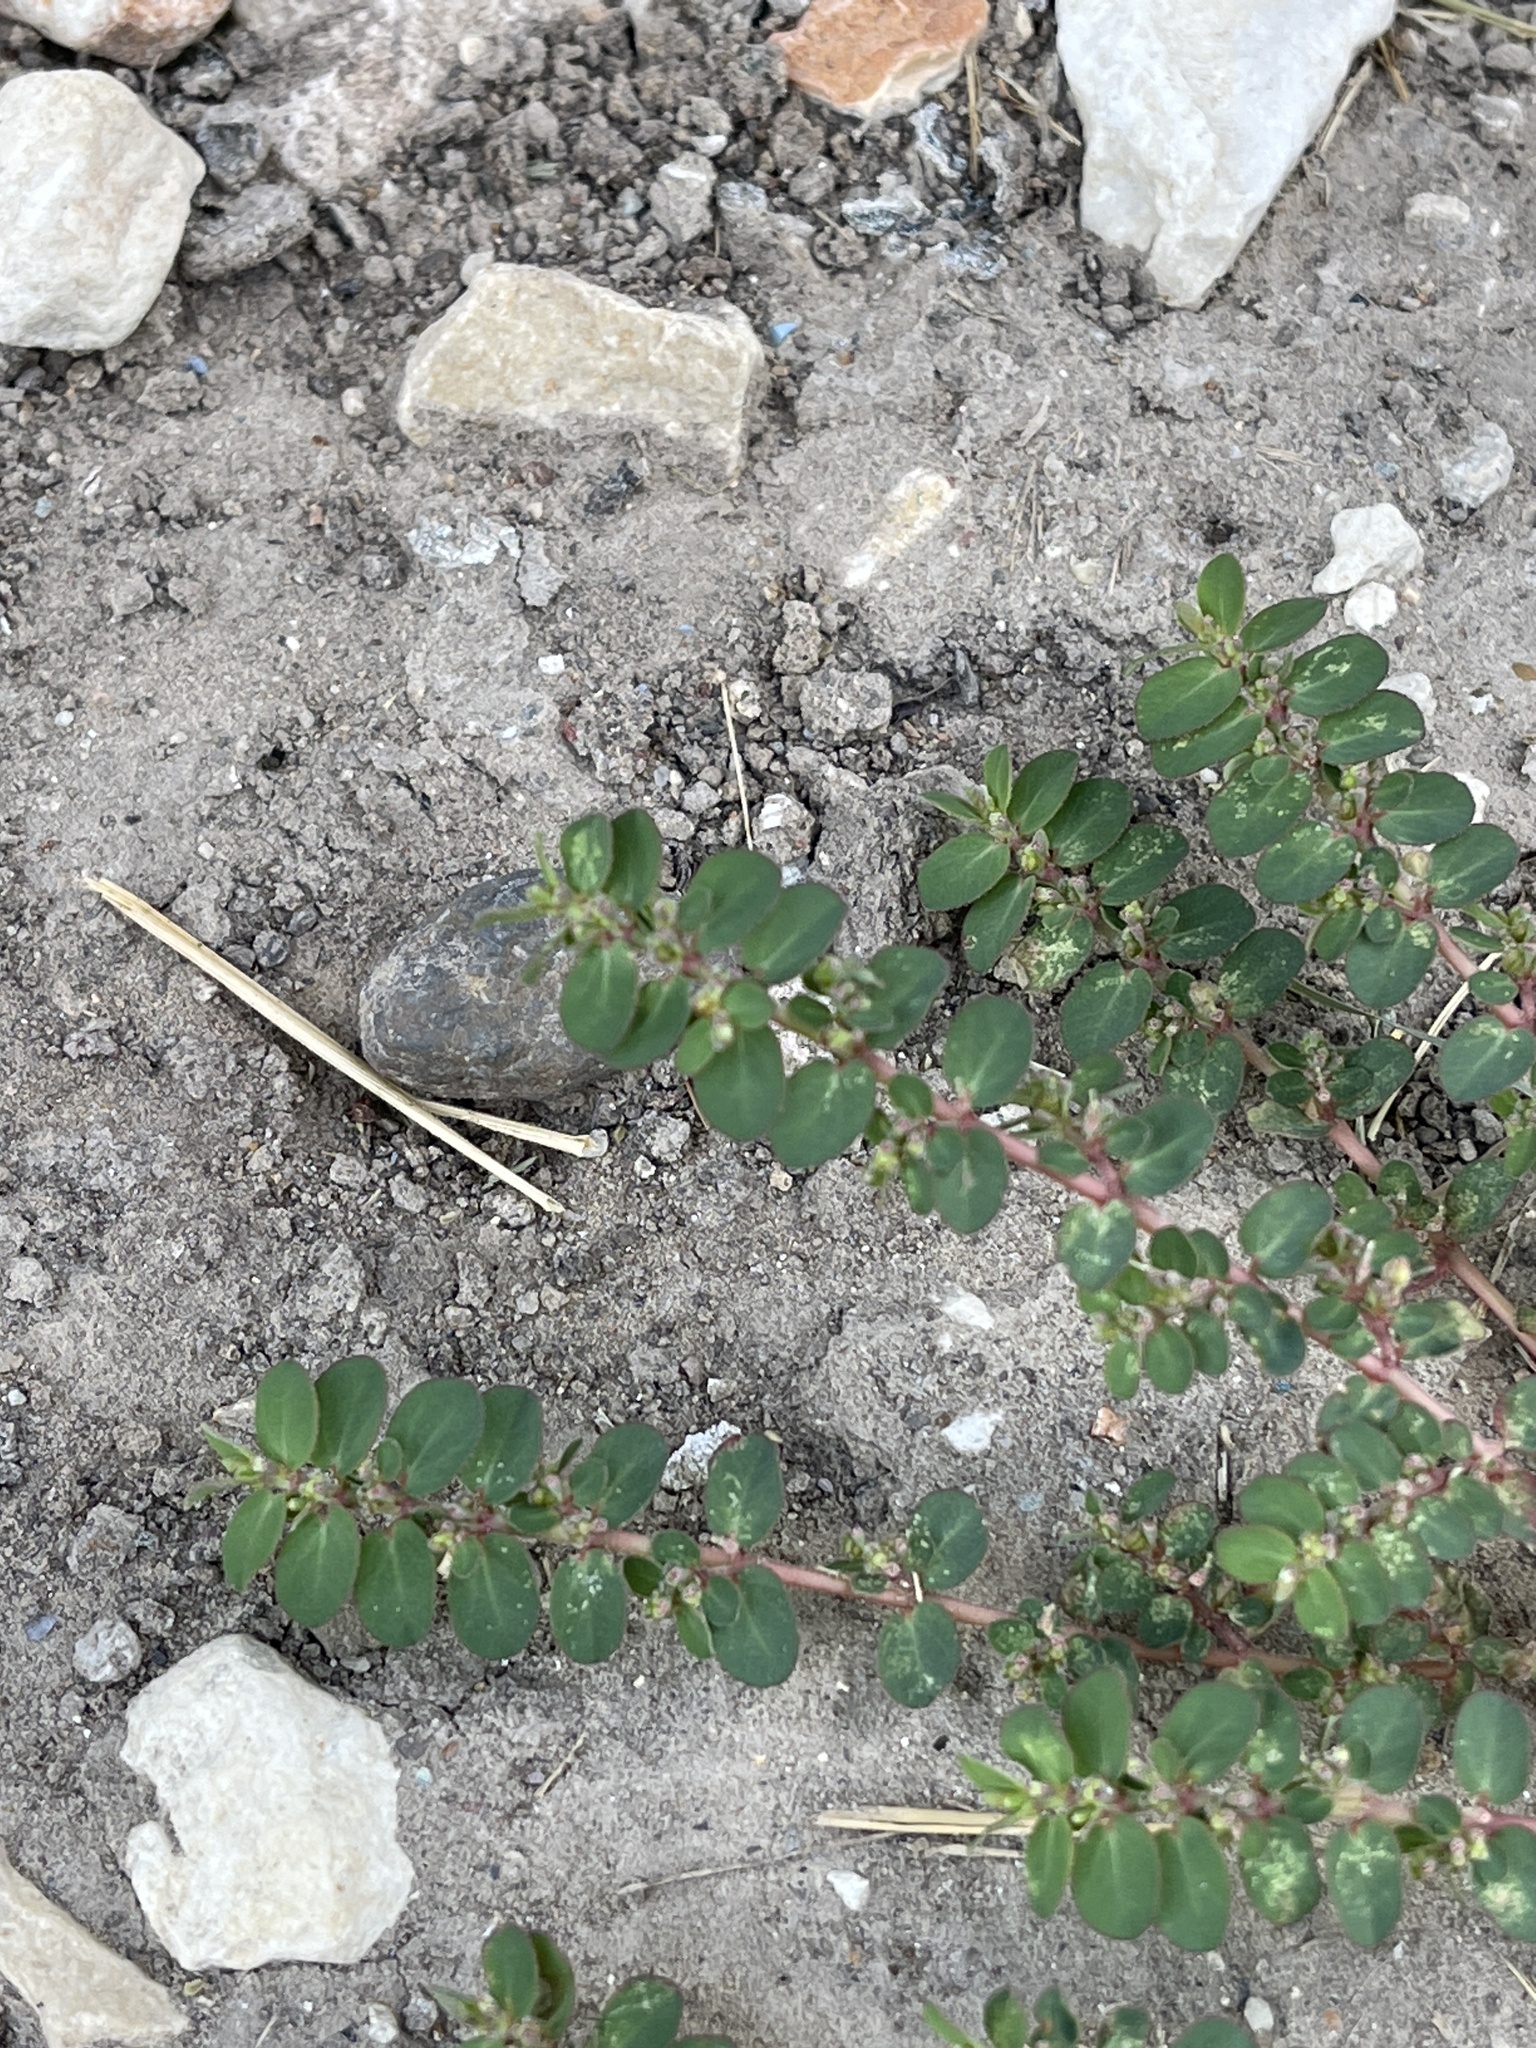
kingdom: Plantae
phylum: Tracheophyta
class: Magnoliopsida
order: Malpighiales
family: Euphorbiaceae
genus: Euphorbia
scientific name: Euphorbia prostrata
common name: Prostrate sandmat
